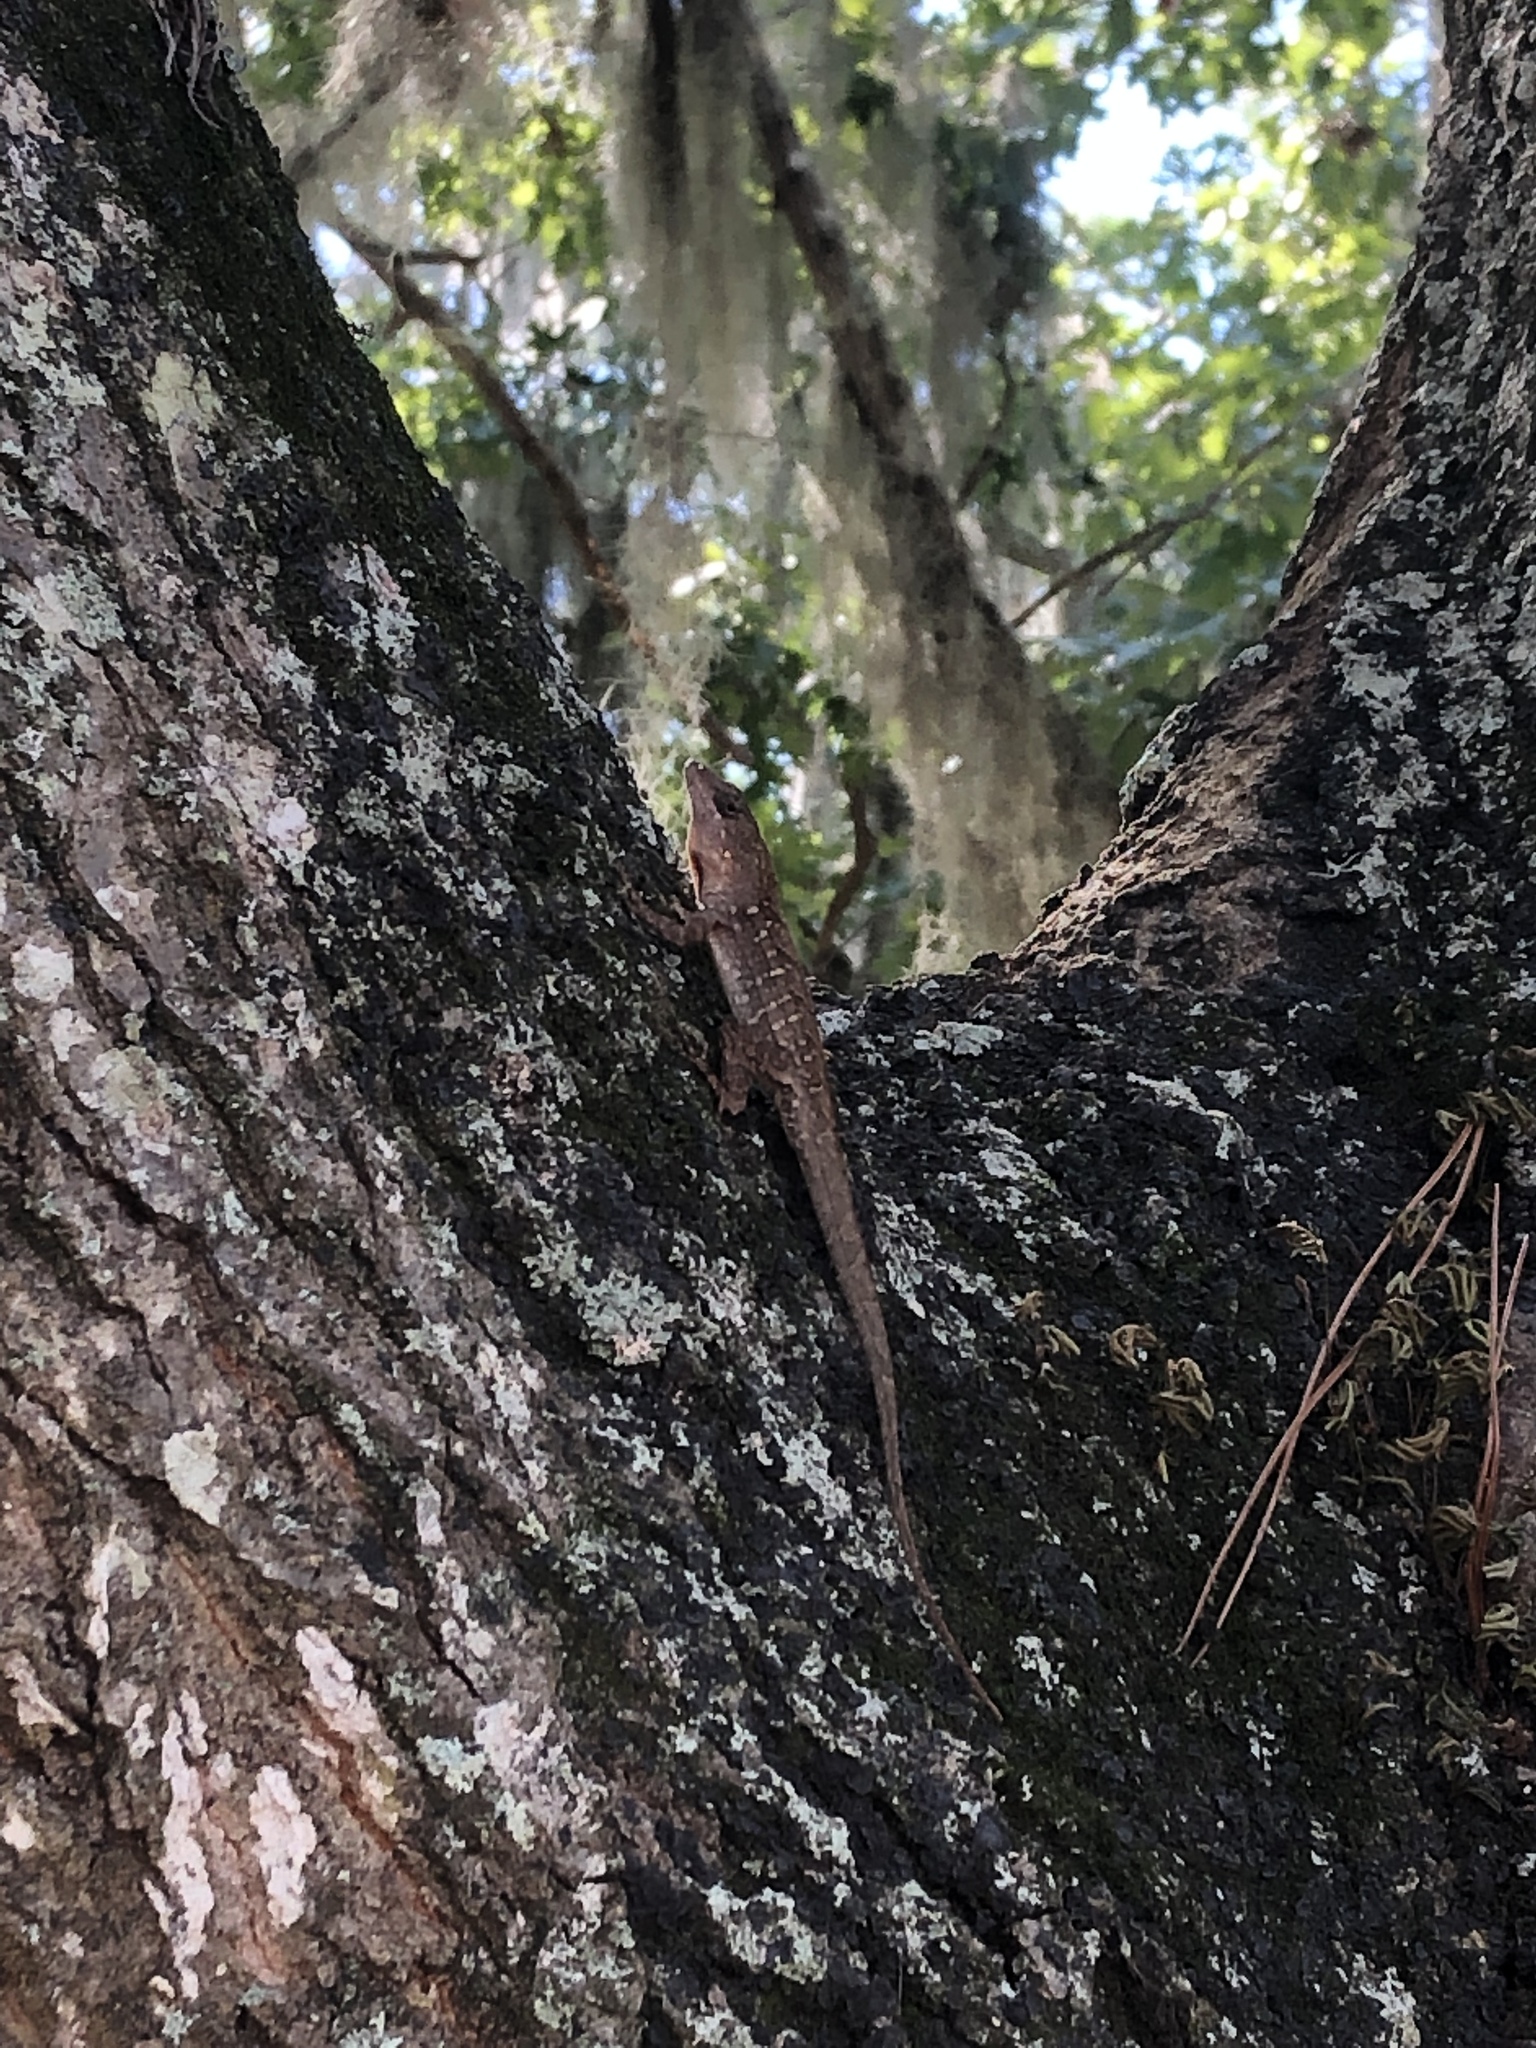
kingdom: Animalia
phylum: Chordata
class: Squamata
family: Dactyloidae
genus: Anolis
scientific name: Anolis sagrei
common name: Brown anole
